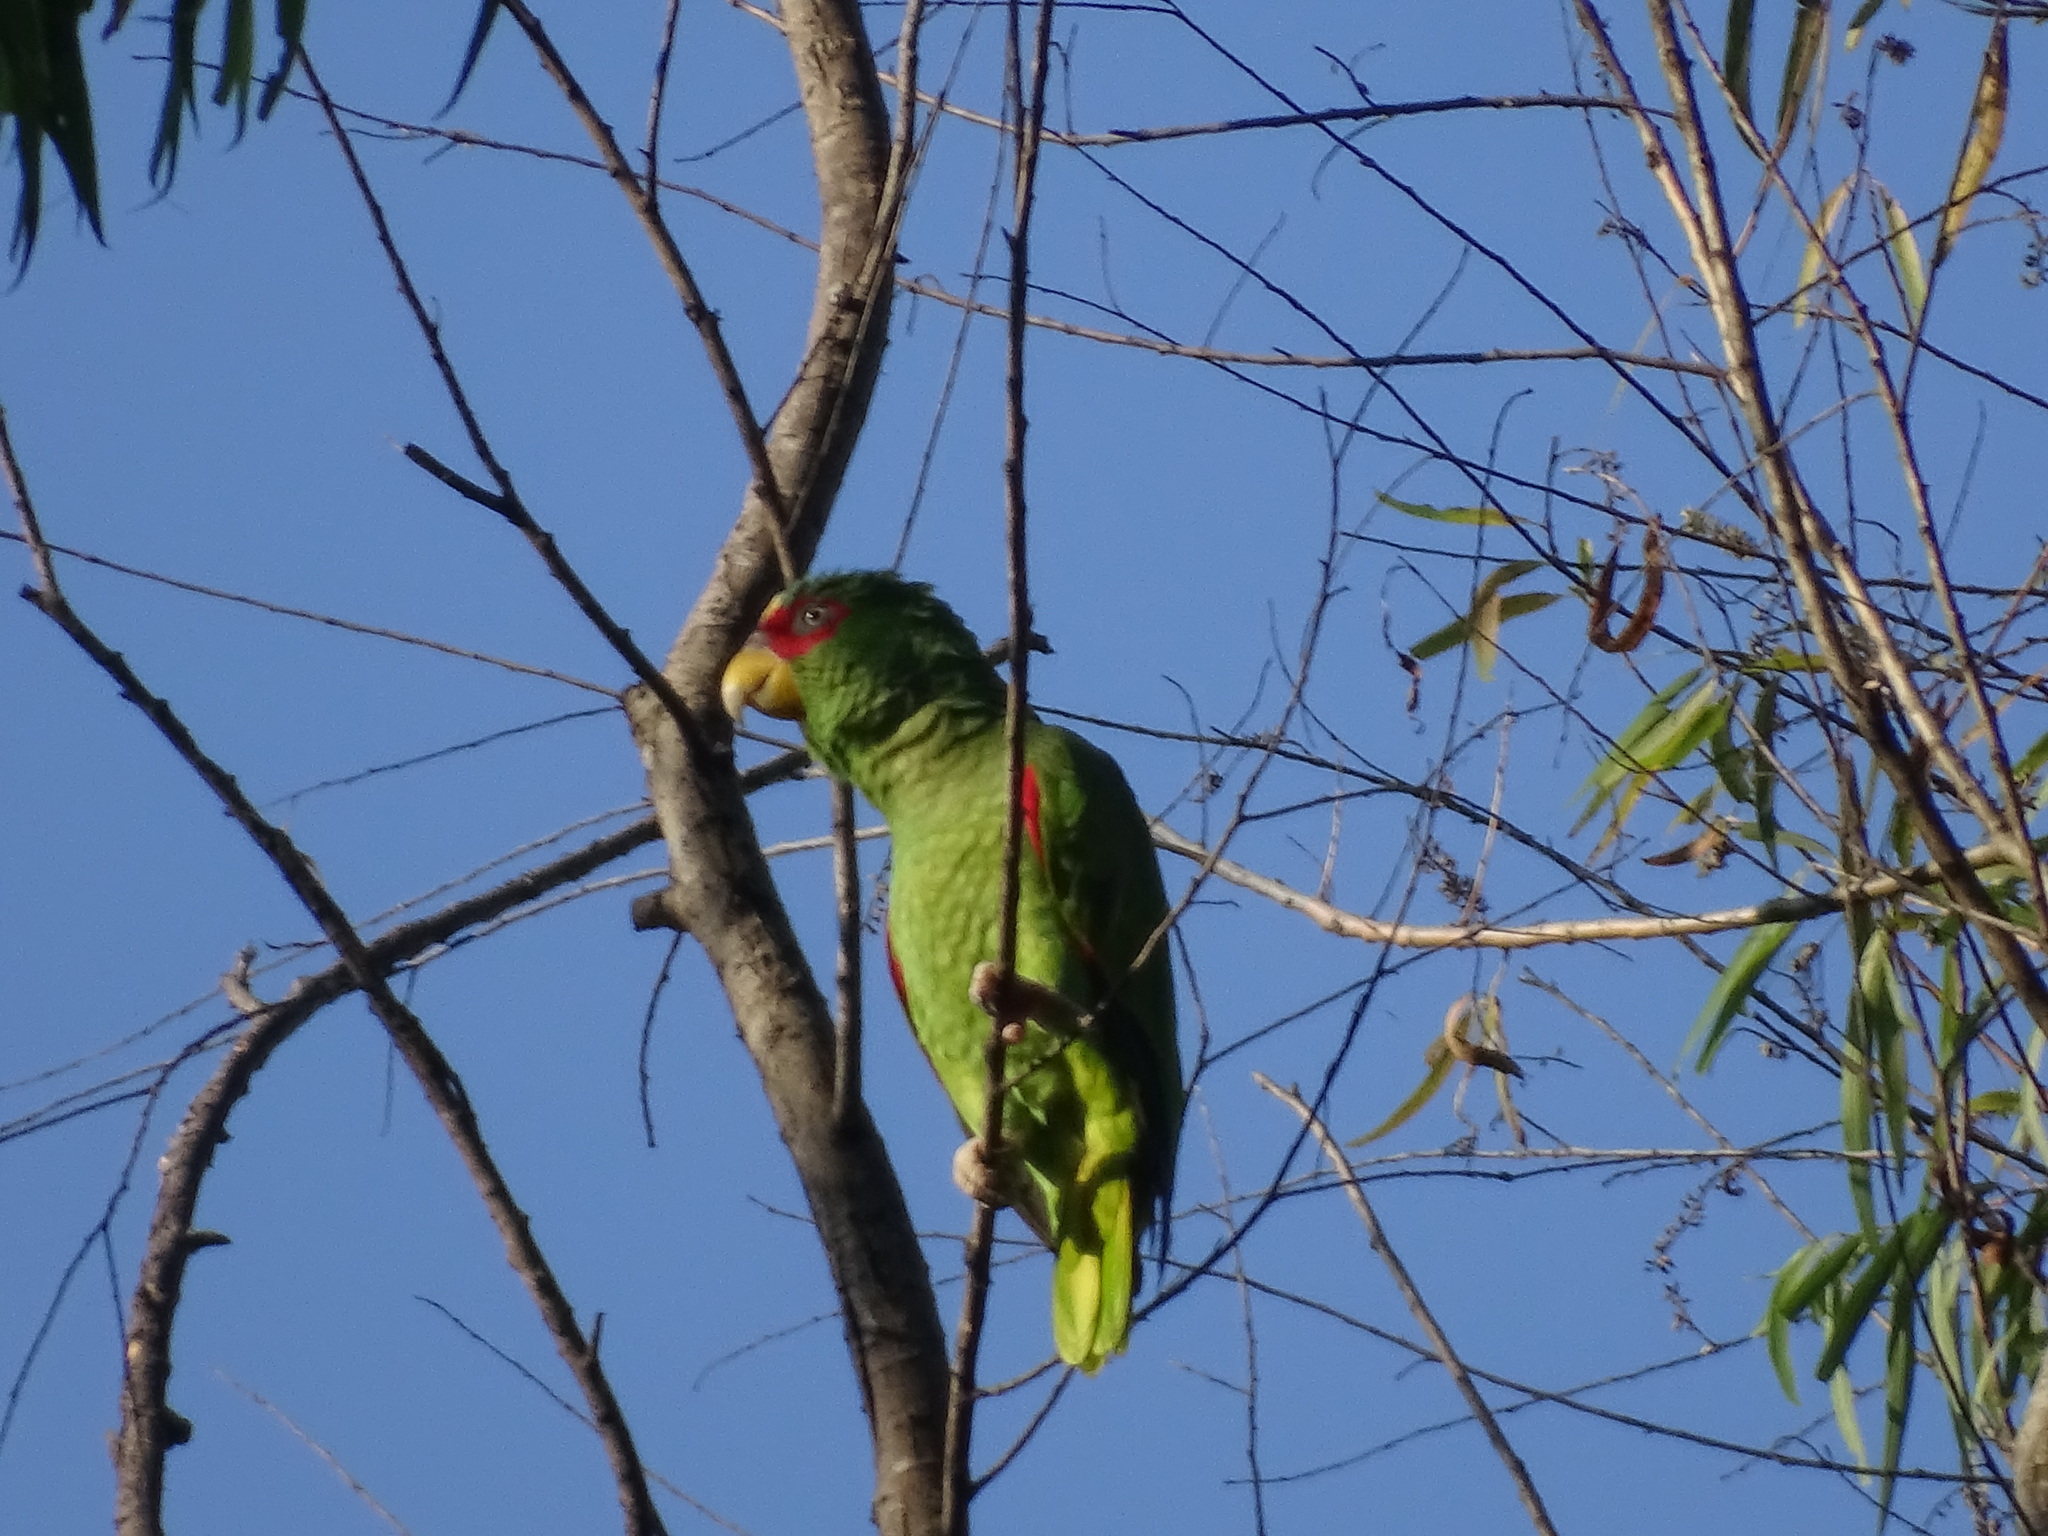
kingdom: Animalia
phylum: Chordata
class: Aves
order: Psittaciformes
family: Psittacidae
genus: Amazona
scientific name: Amazona albifrons
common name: White-fronted amazon
